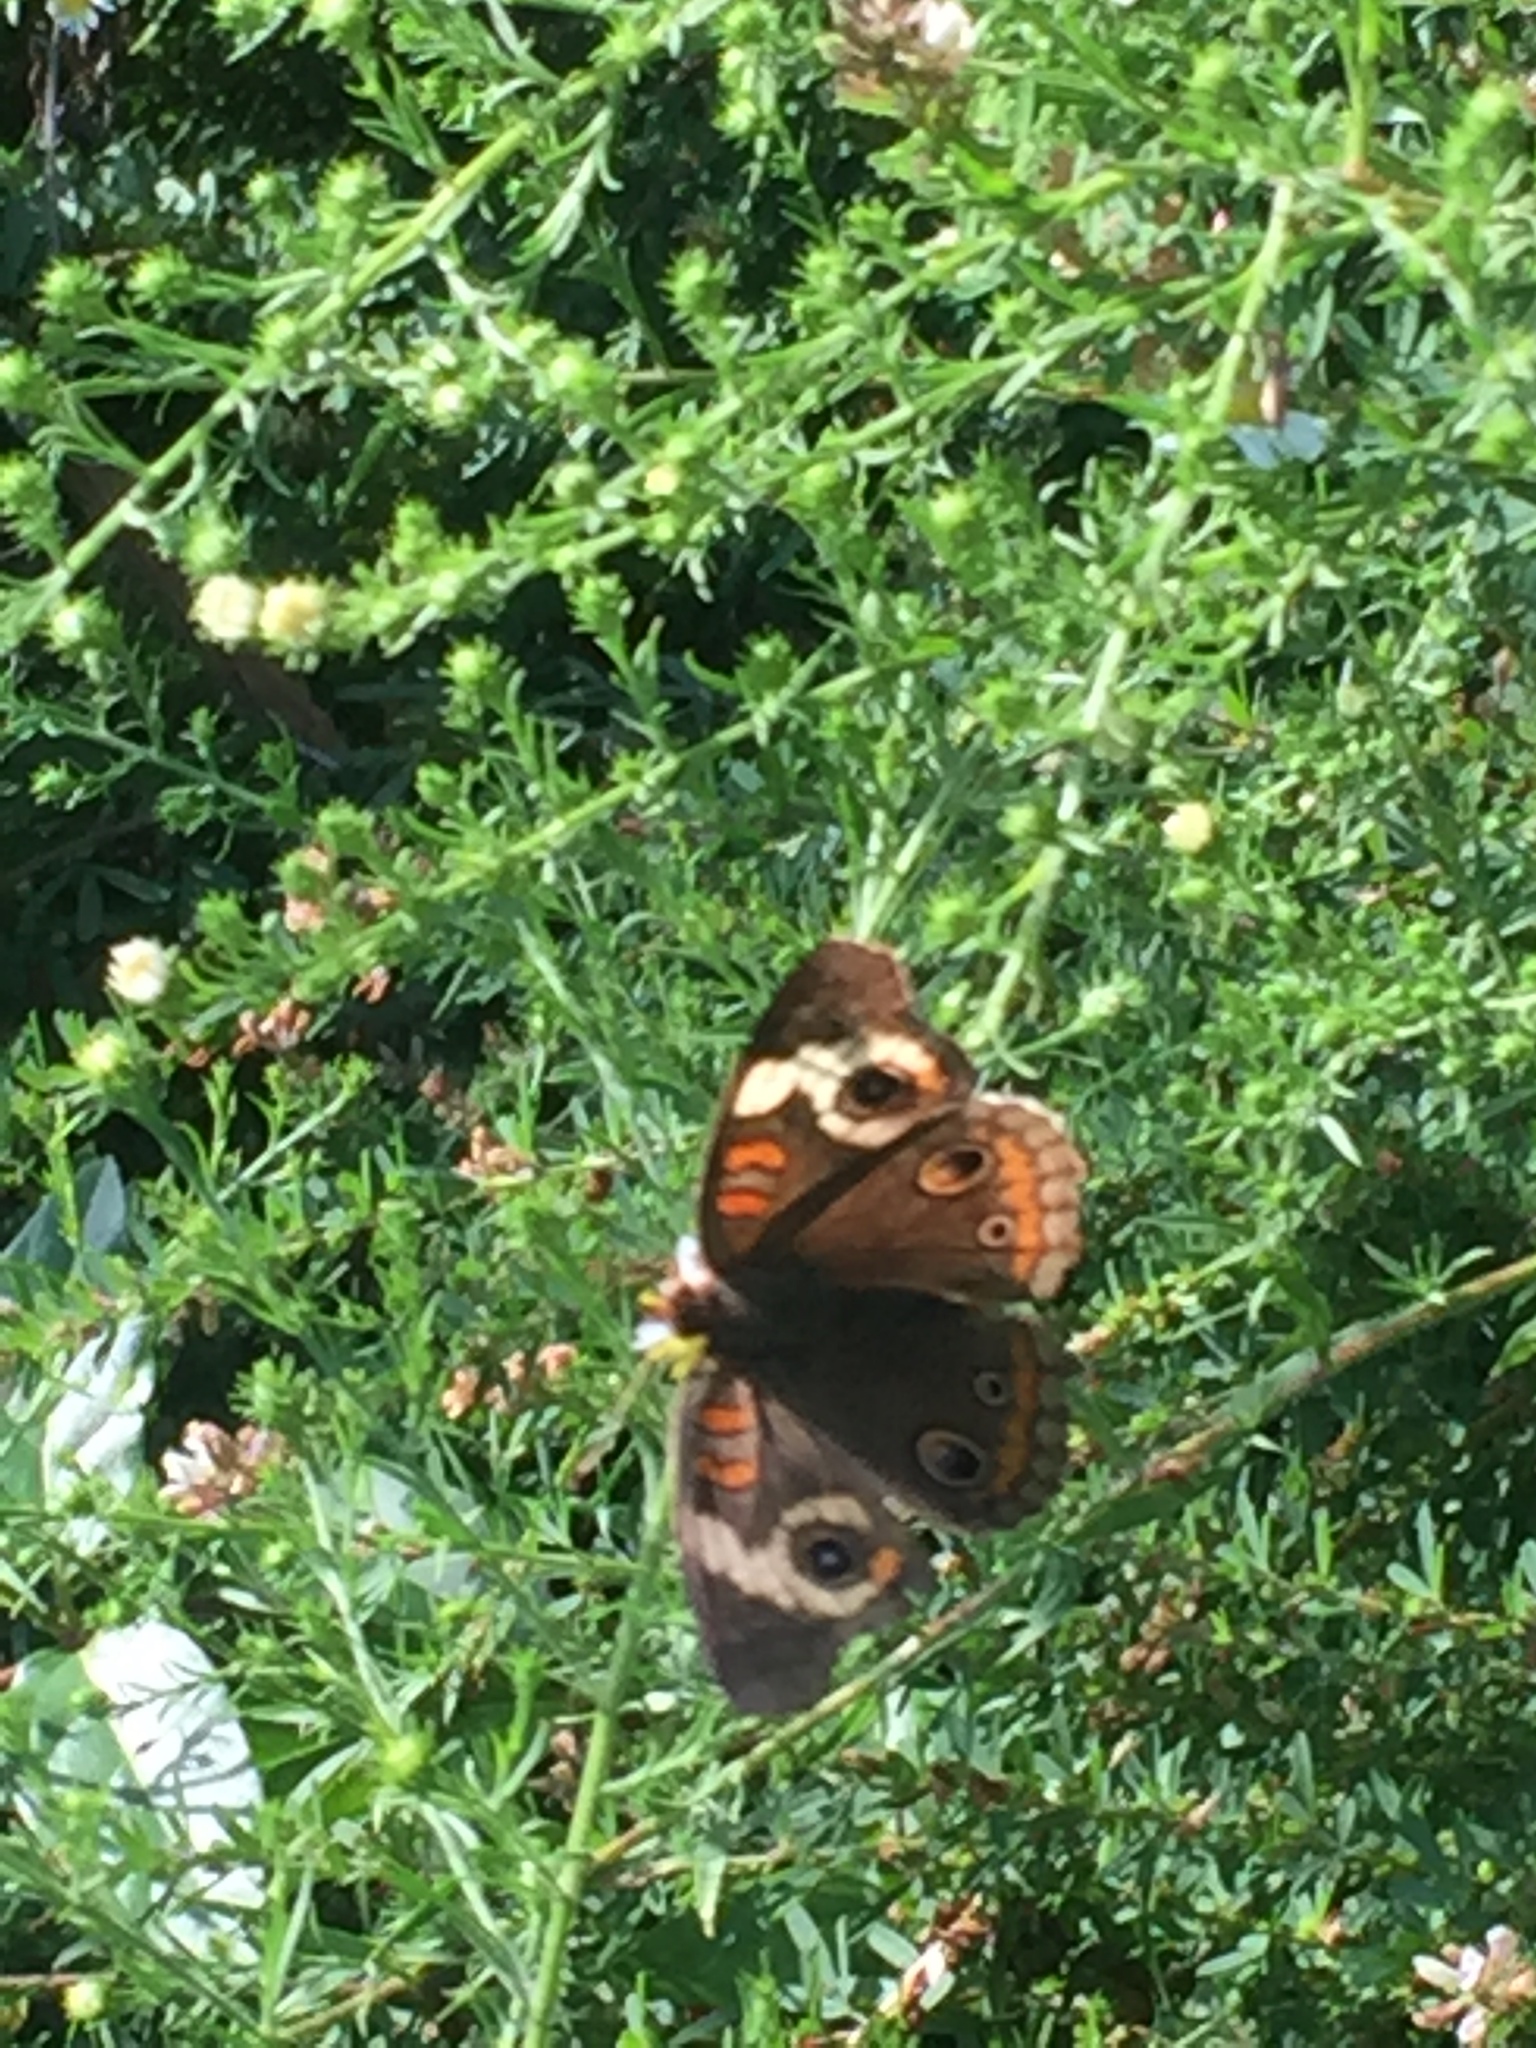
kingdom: Animalia
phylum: Arthropoda
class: Insecta
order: Lepidoptera
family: Nymphalidae
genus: Junonia
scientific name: Junonia coenia
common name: Common buckeye
